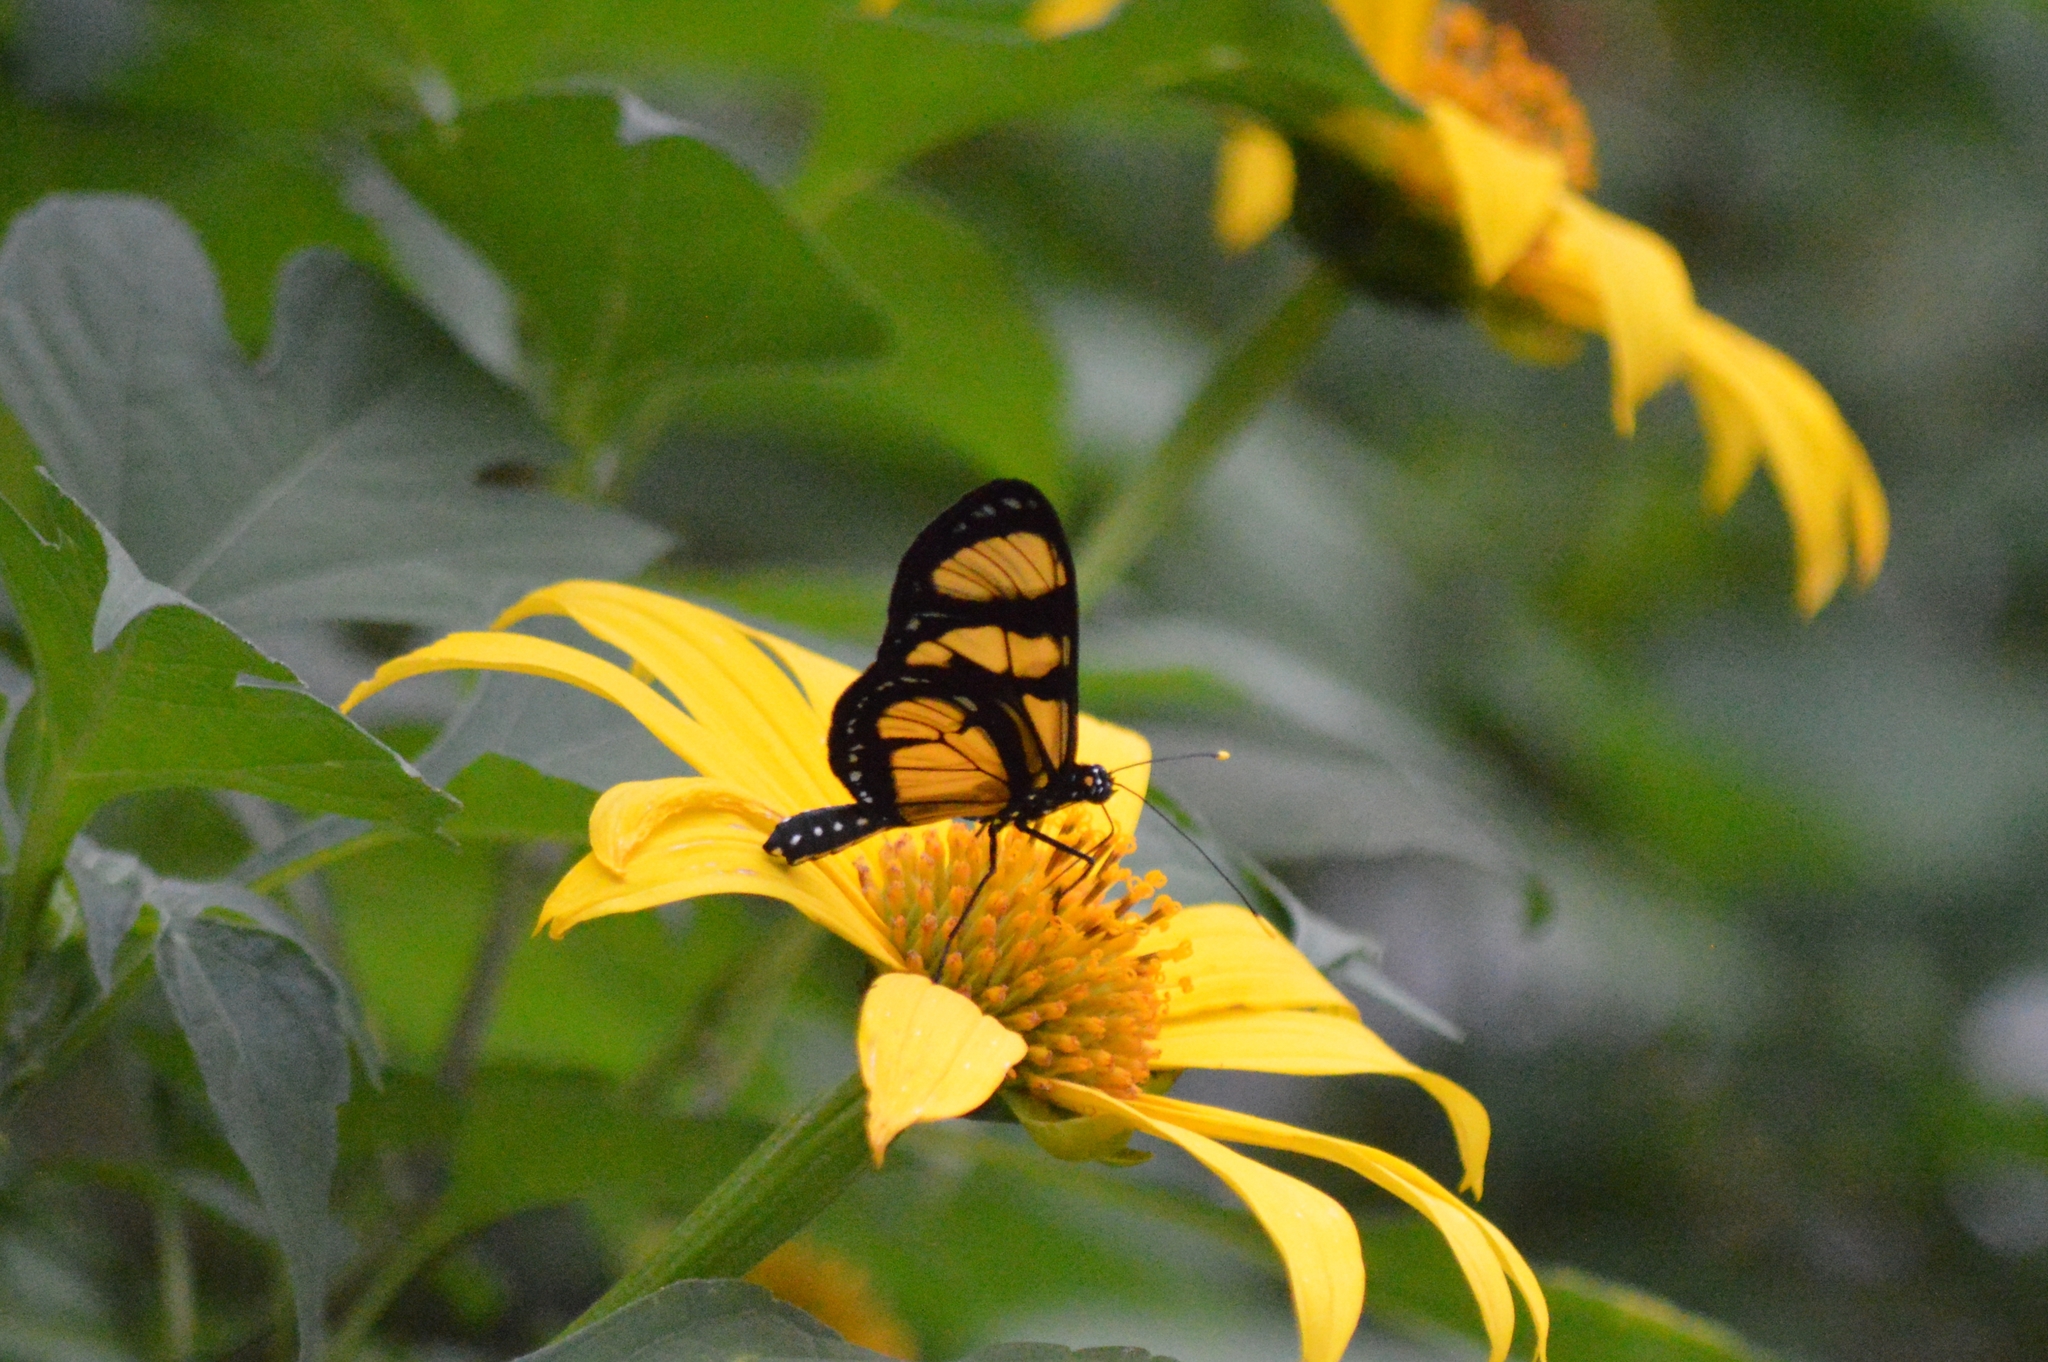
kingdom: Animalia
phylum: Arthropoda
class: Insecta
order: Lepidoptera
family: Nymphalidae
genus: Methona
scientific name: Methona themisto
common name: Themisto amberwing
